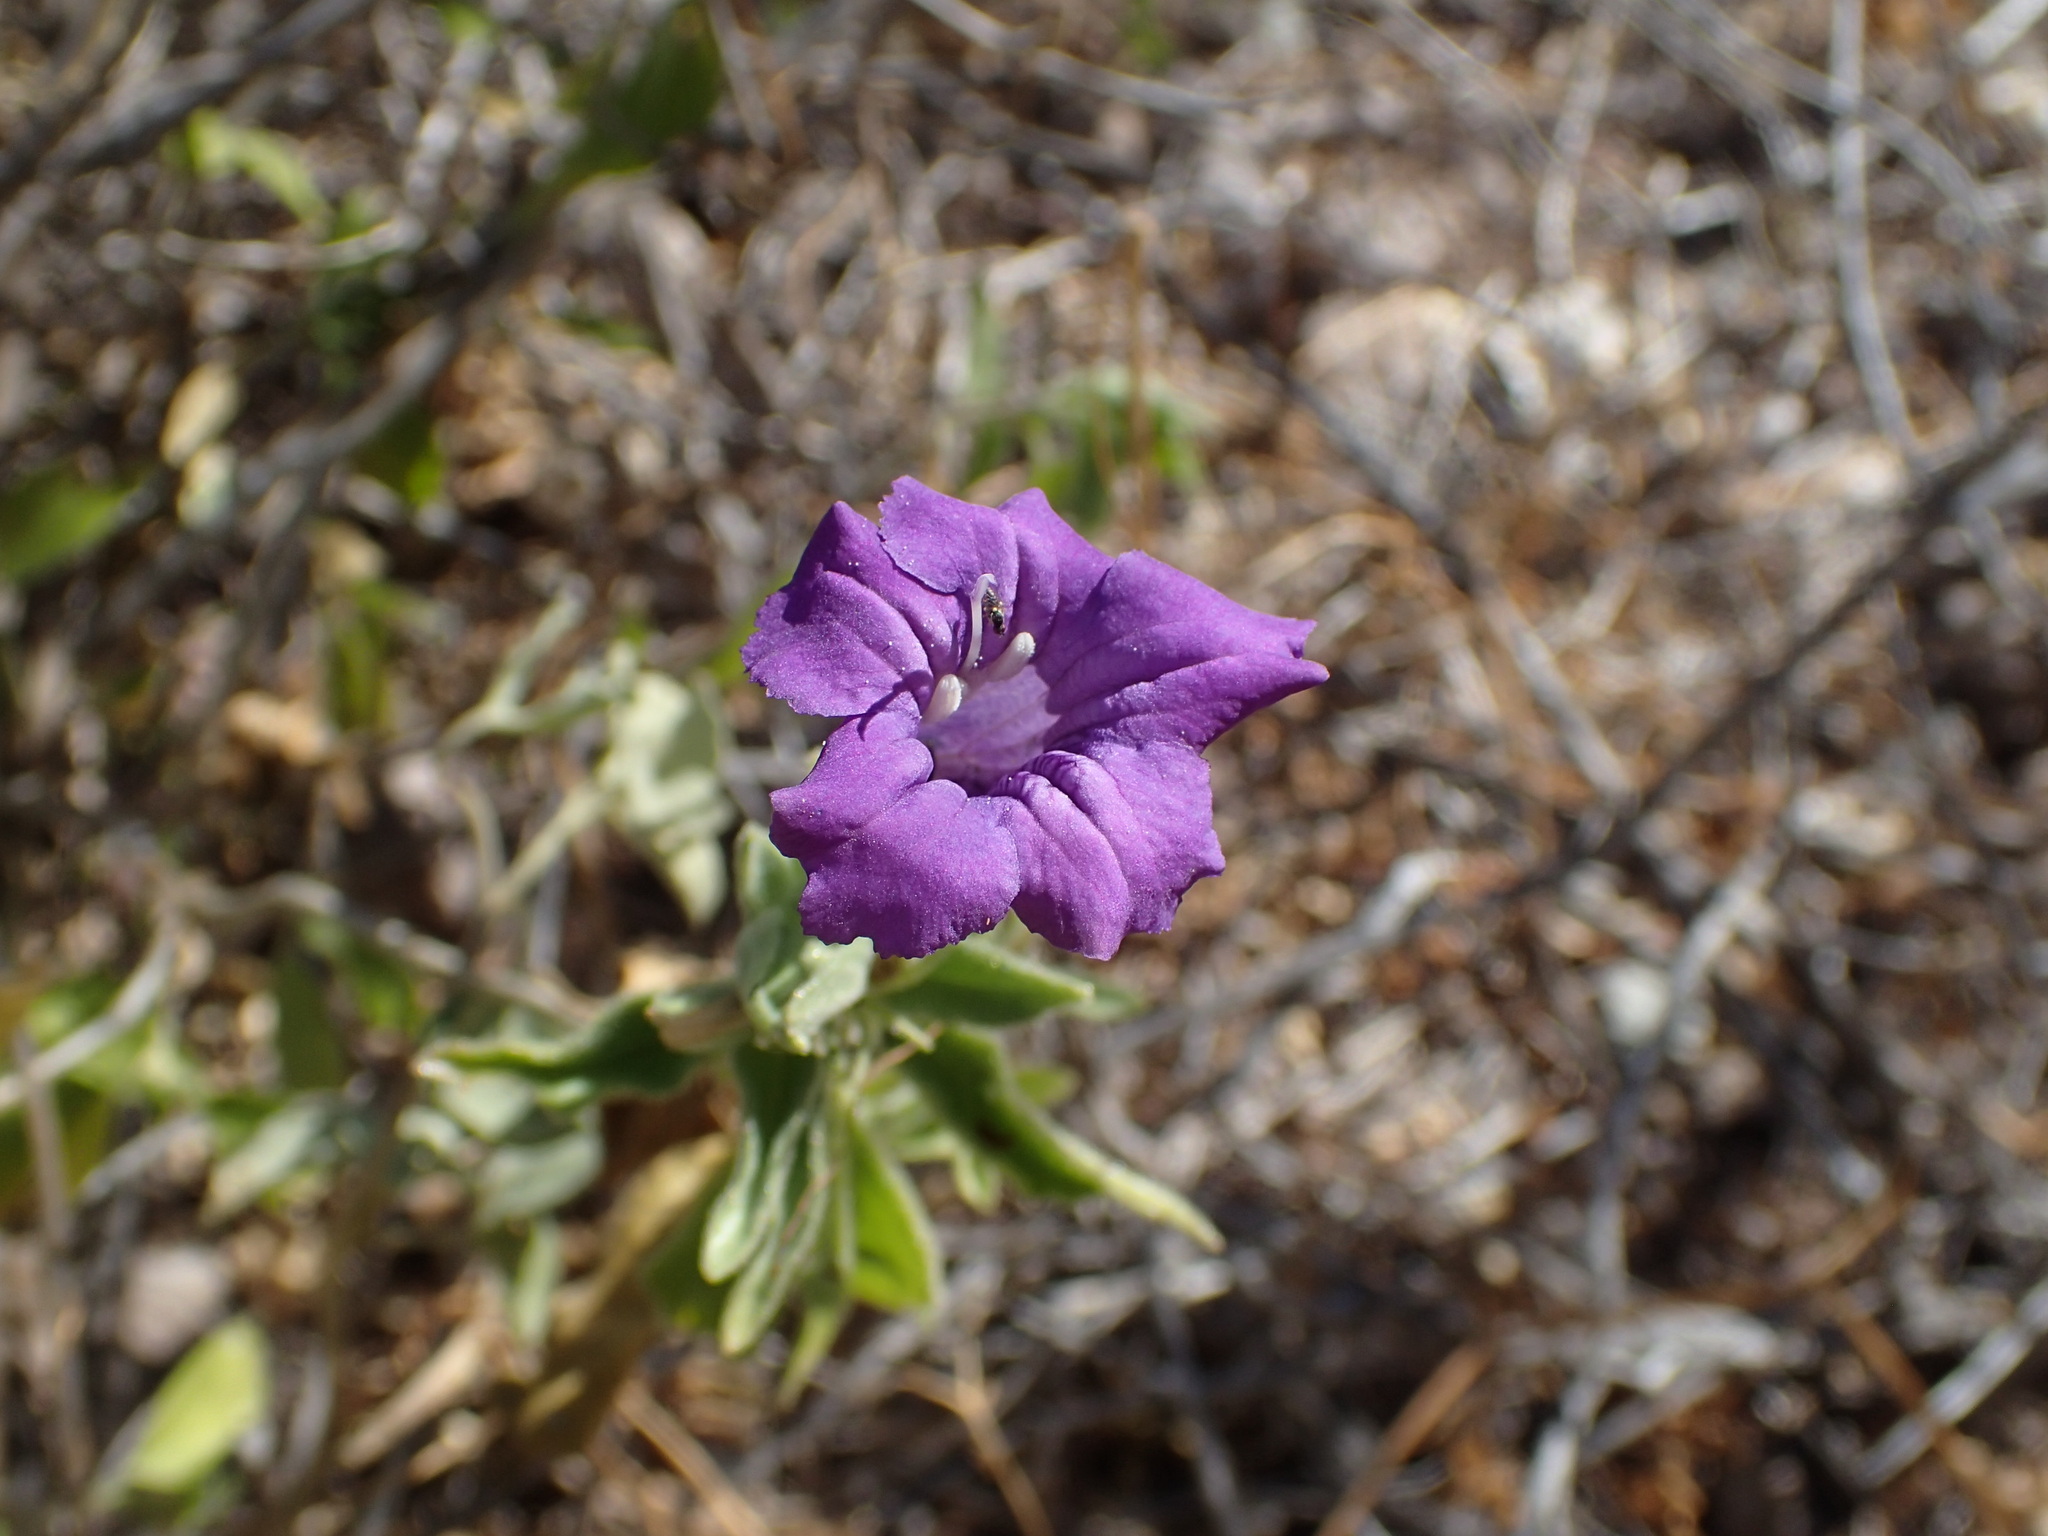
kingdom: Plantae
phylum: Tracheophyta
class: Magnoliopsida
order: Lamiales
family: Acanthaceae
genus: Ruellia
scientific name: Ruellia californica
